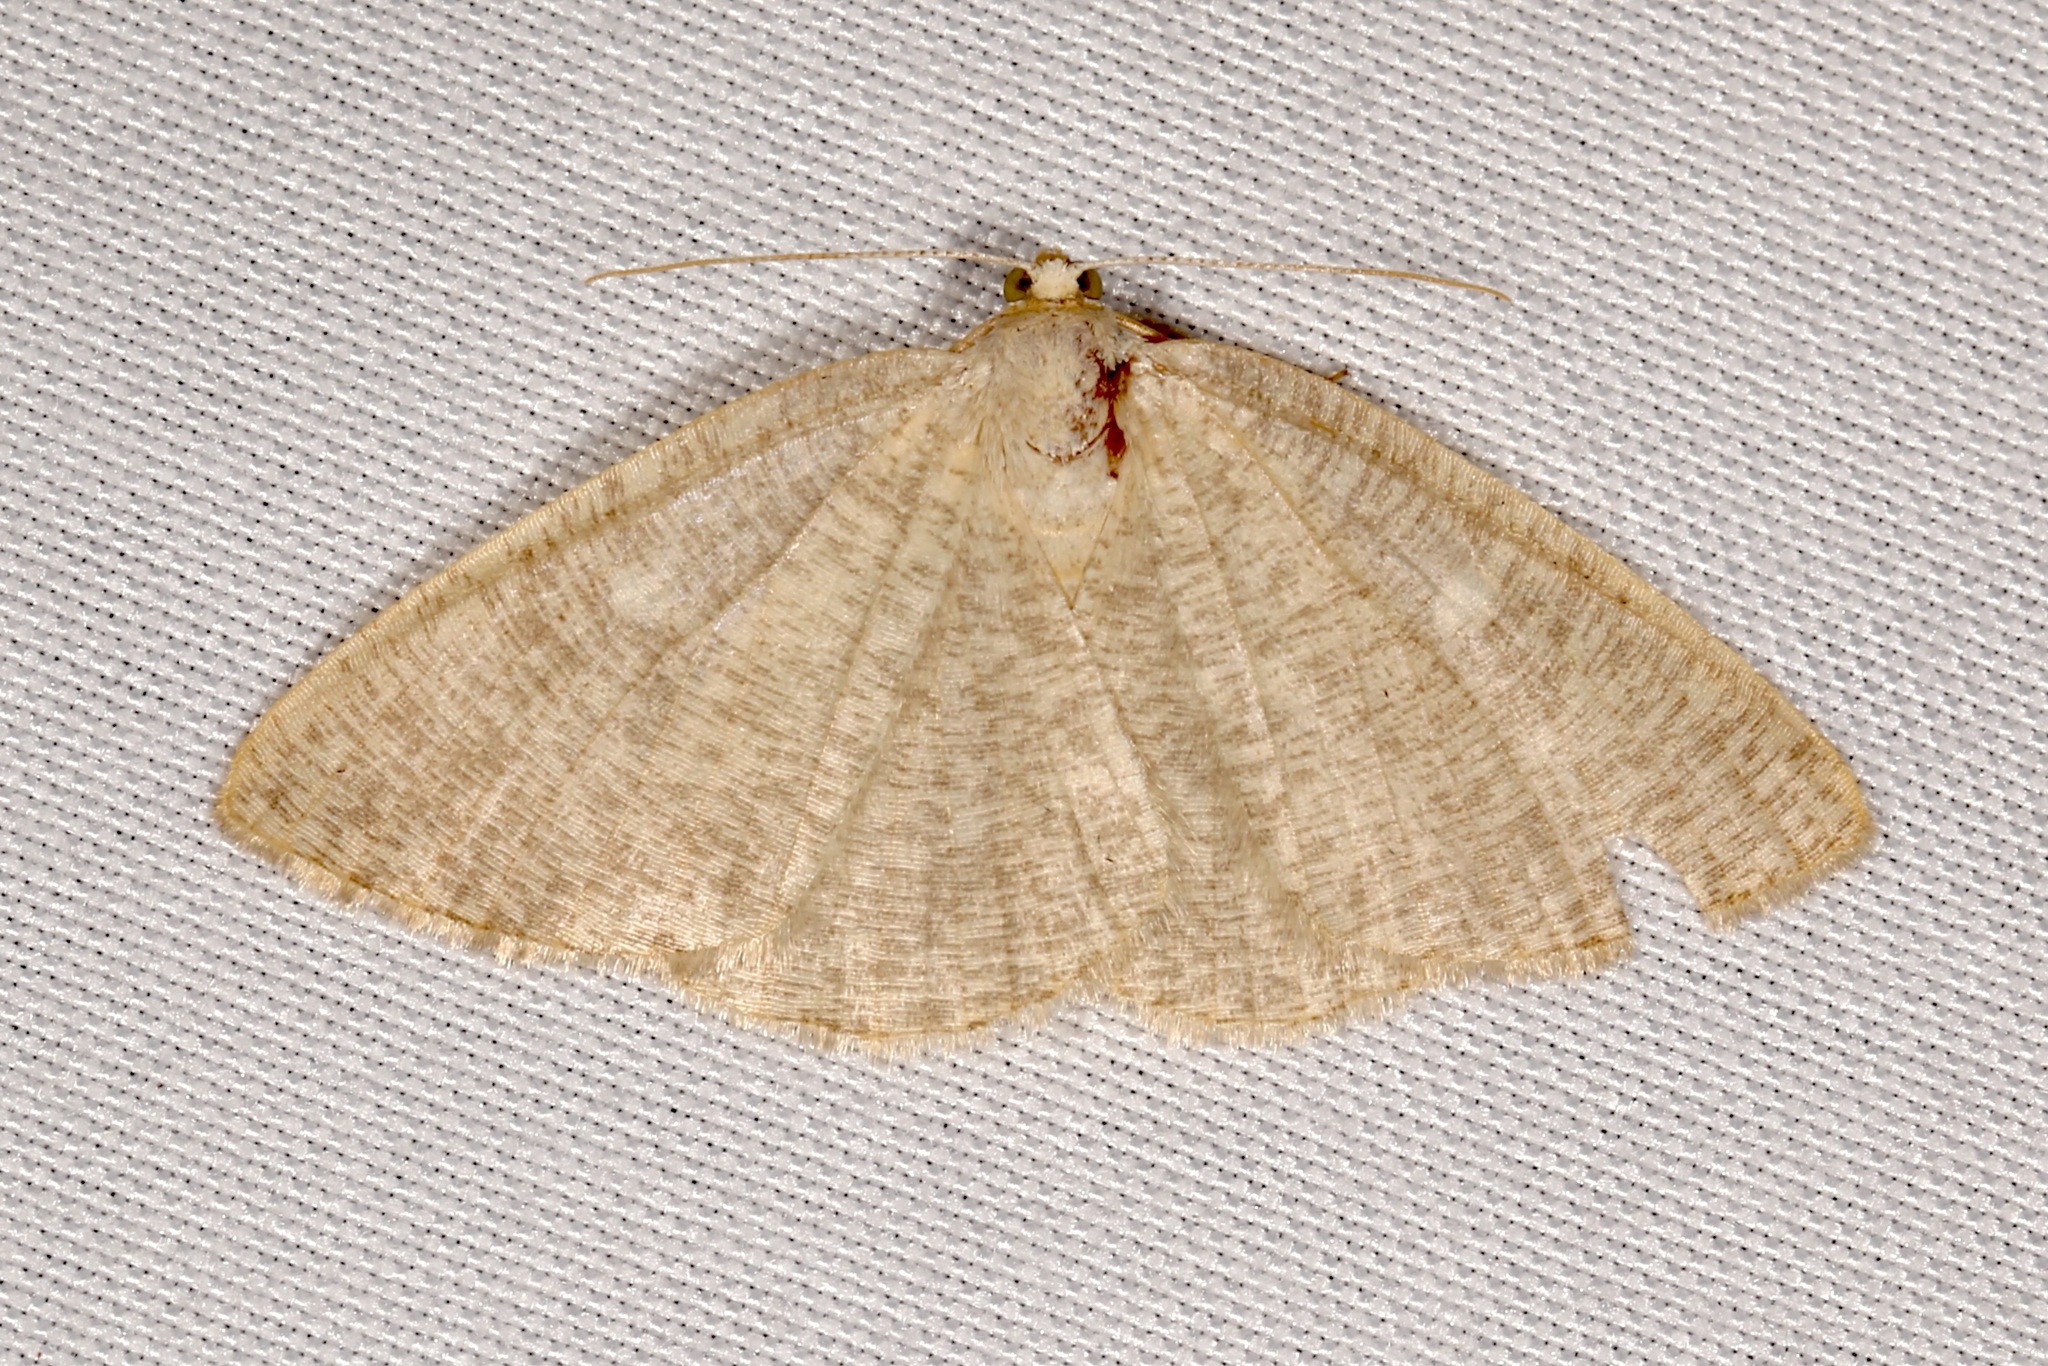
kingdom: Animalia
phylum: Arthropoda
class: Insecta
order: Lepidoptera
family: Geometridae
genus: Pterospoda
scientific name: Pterospoda kunzei
